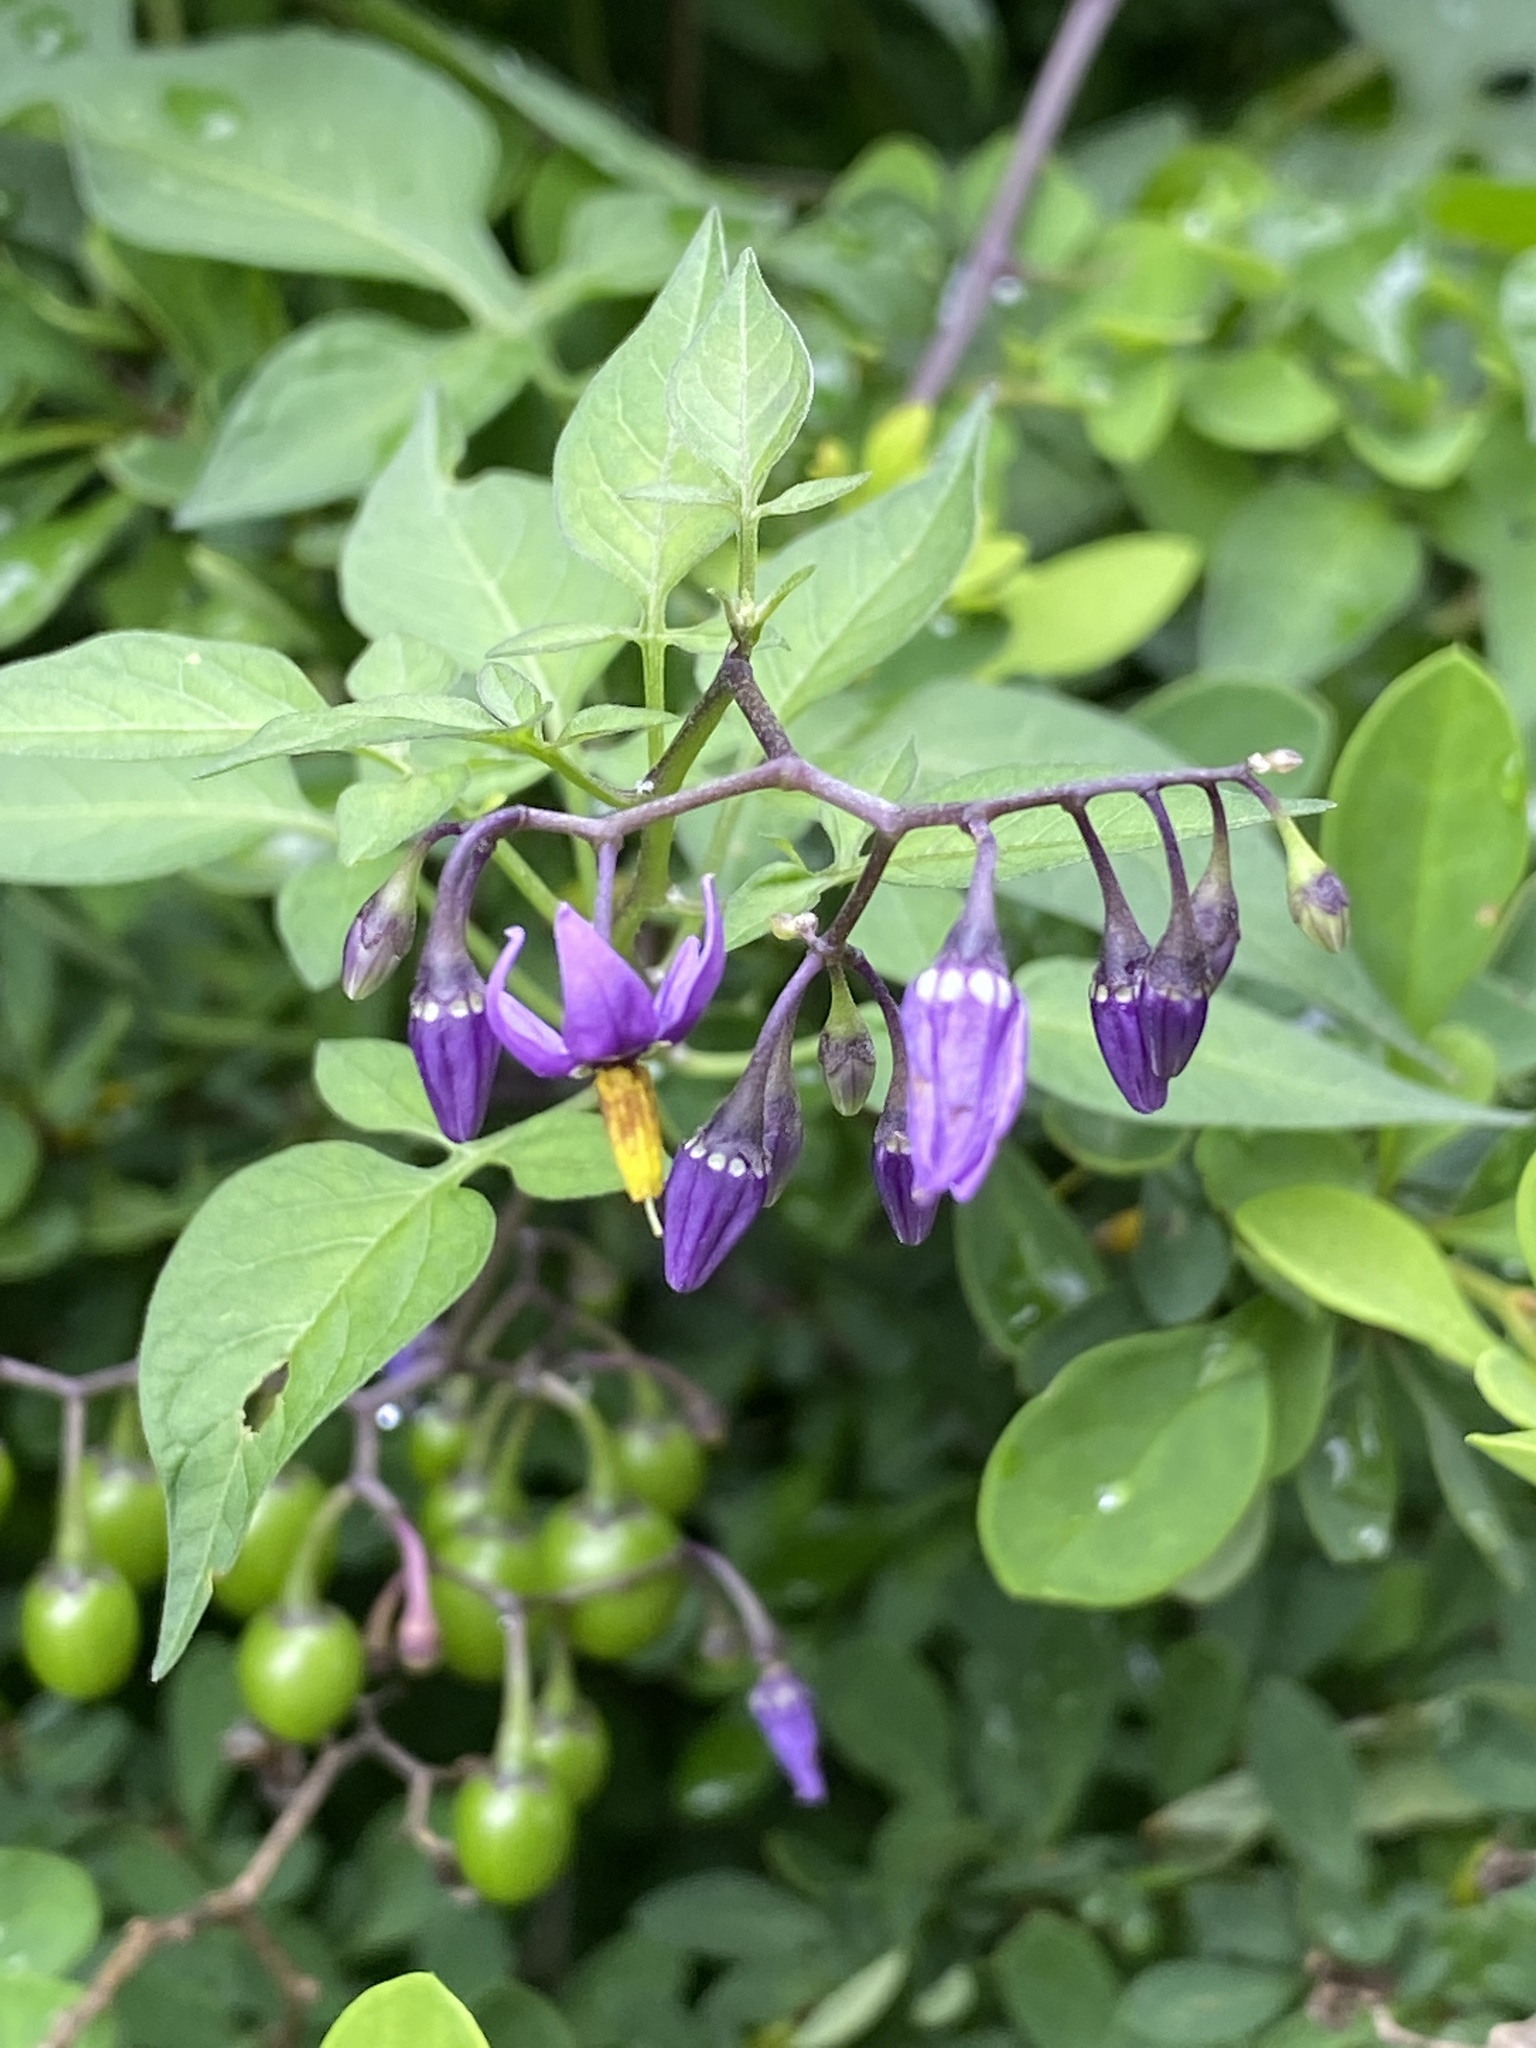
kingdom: Plantae
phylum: Tracheophyta
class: Magnoliopsida
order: Solanales
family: Solanaceae
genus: Solanum
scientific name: Solanum dulcamara
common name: Climbing nightshade
